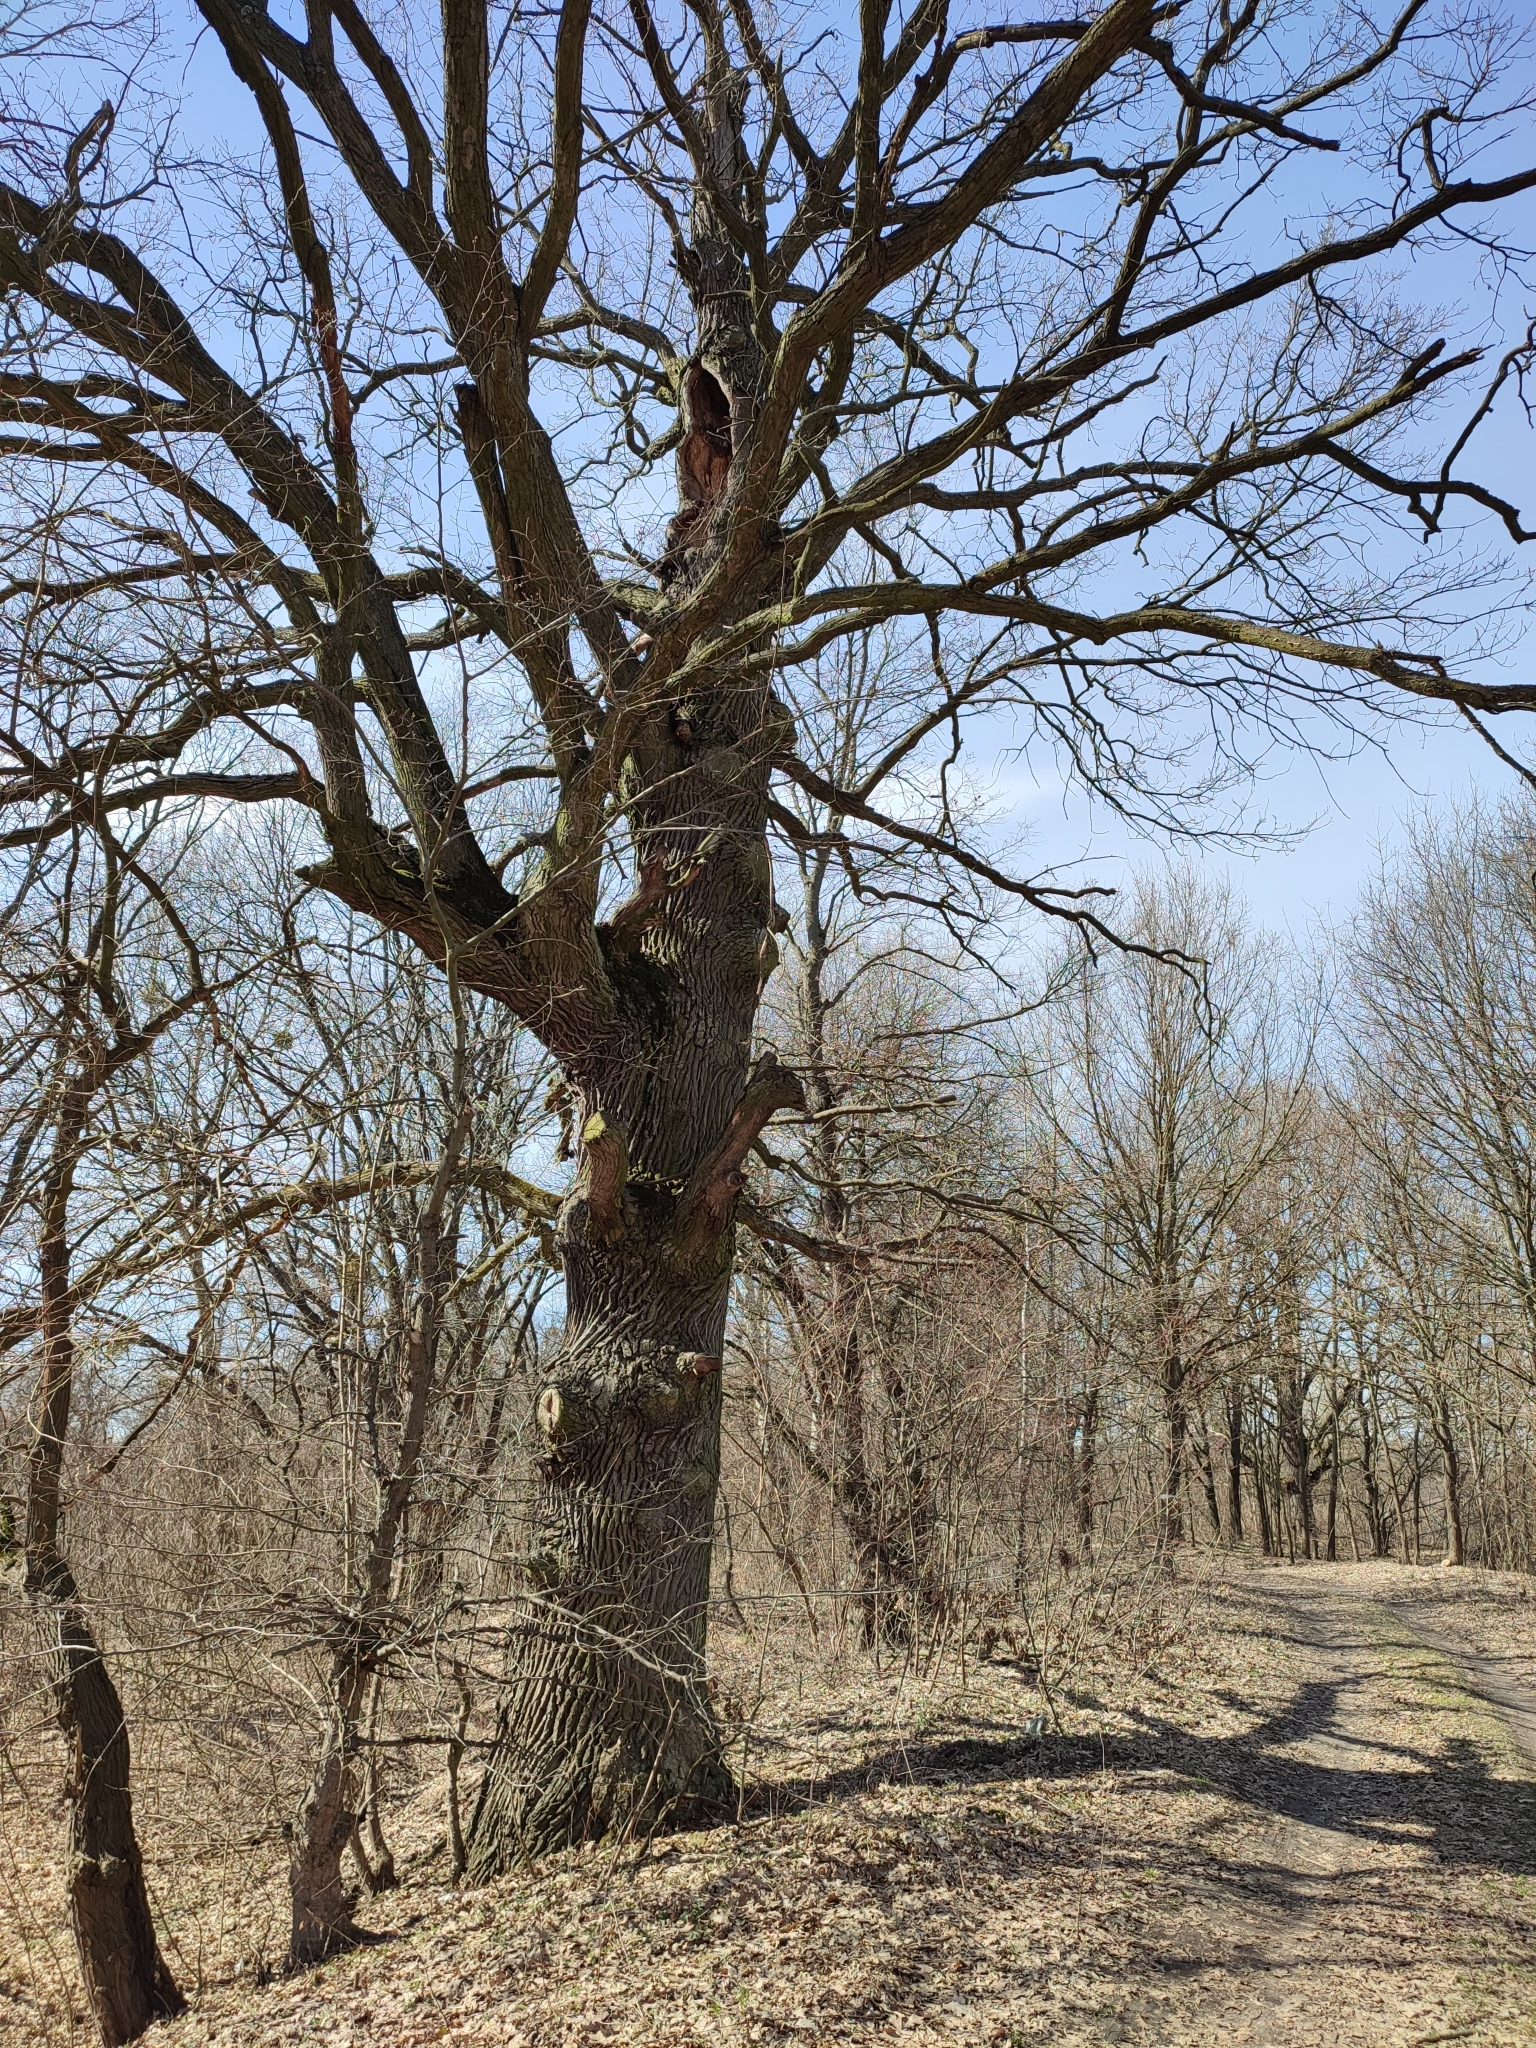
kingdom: Plantae
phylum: Tracheophyta
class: Magnoliopsida
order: Fagales
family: Fagaceae
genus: Quercus
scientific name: Quercus robur
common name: Pedunculate oak
